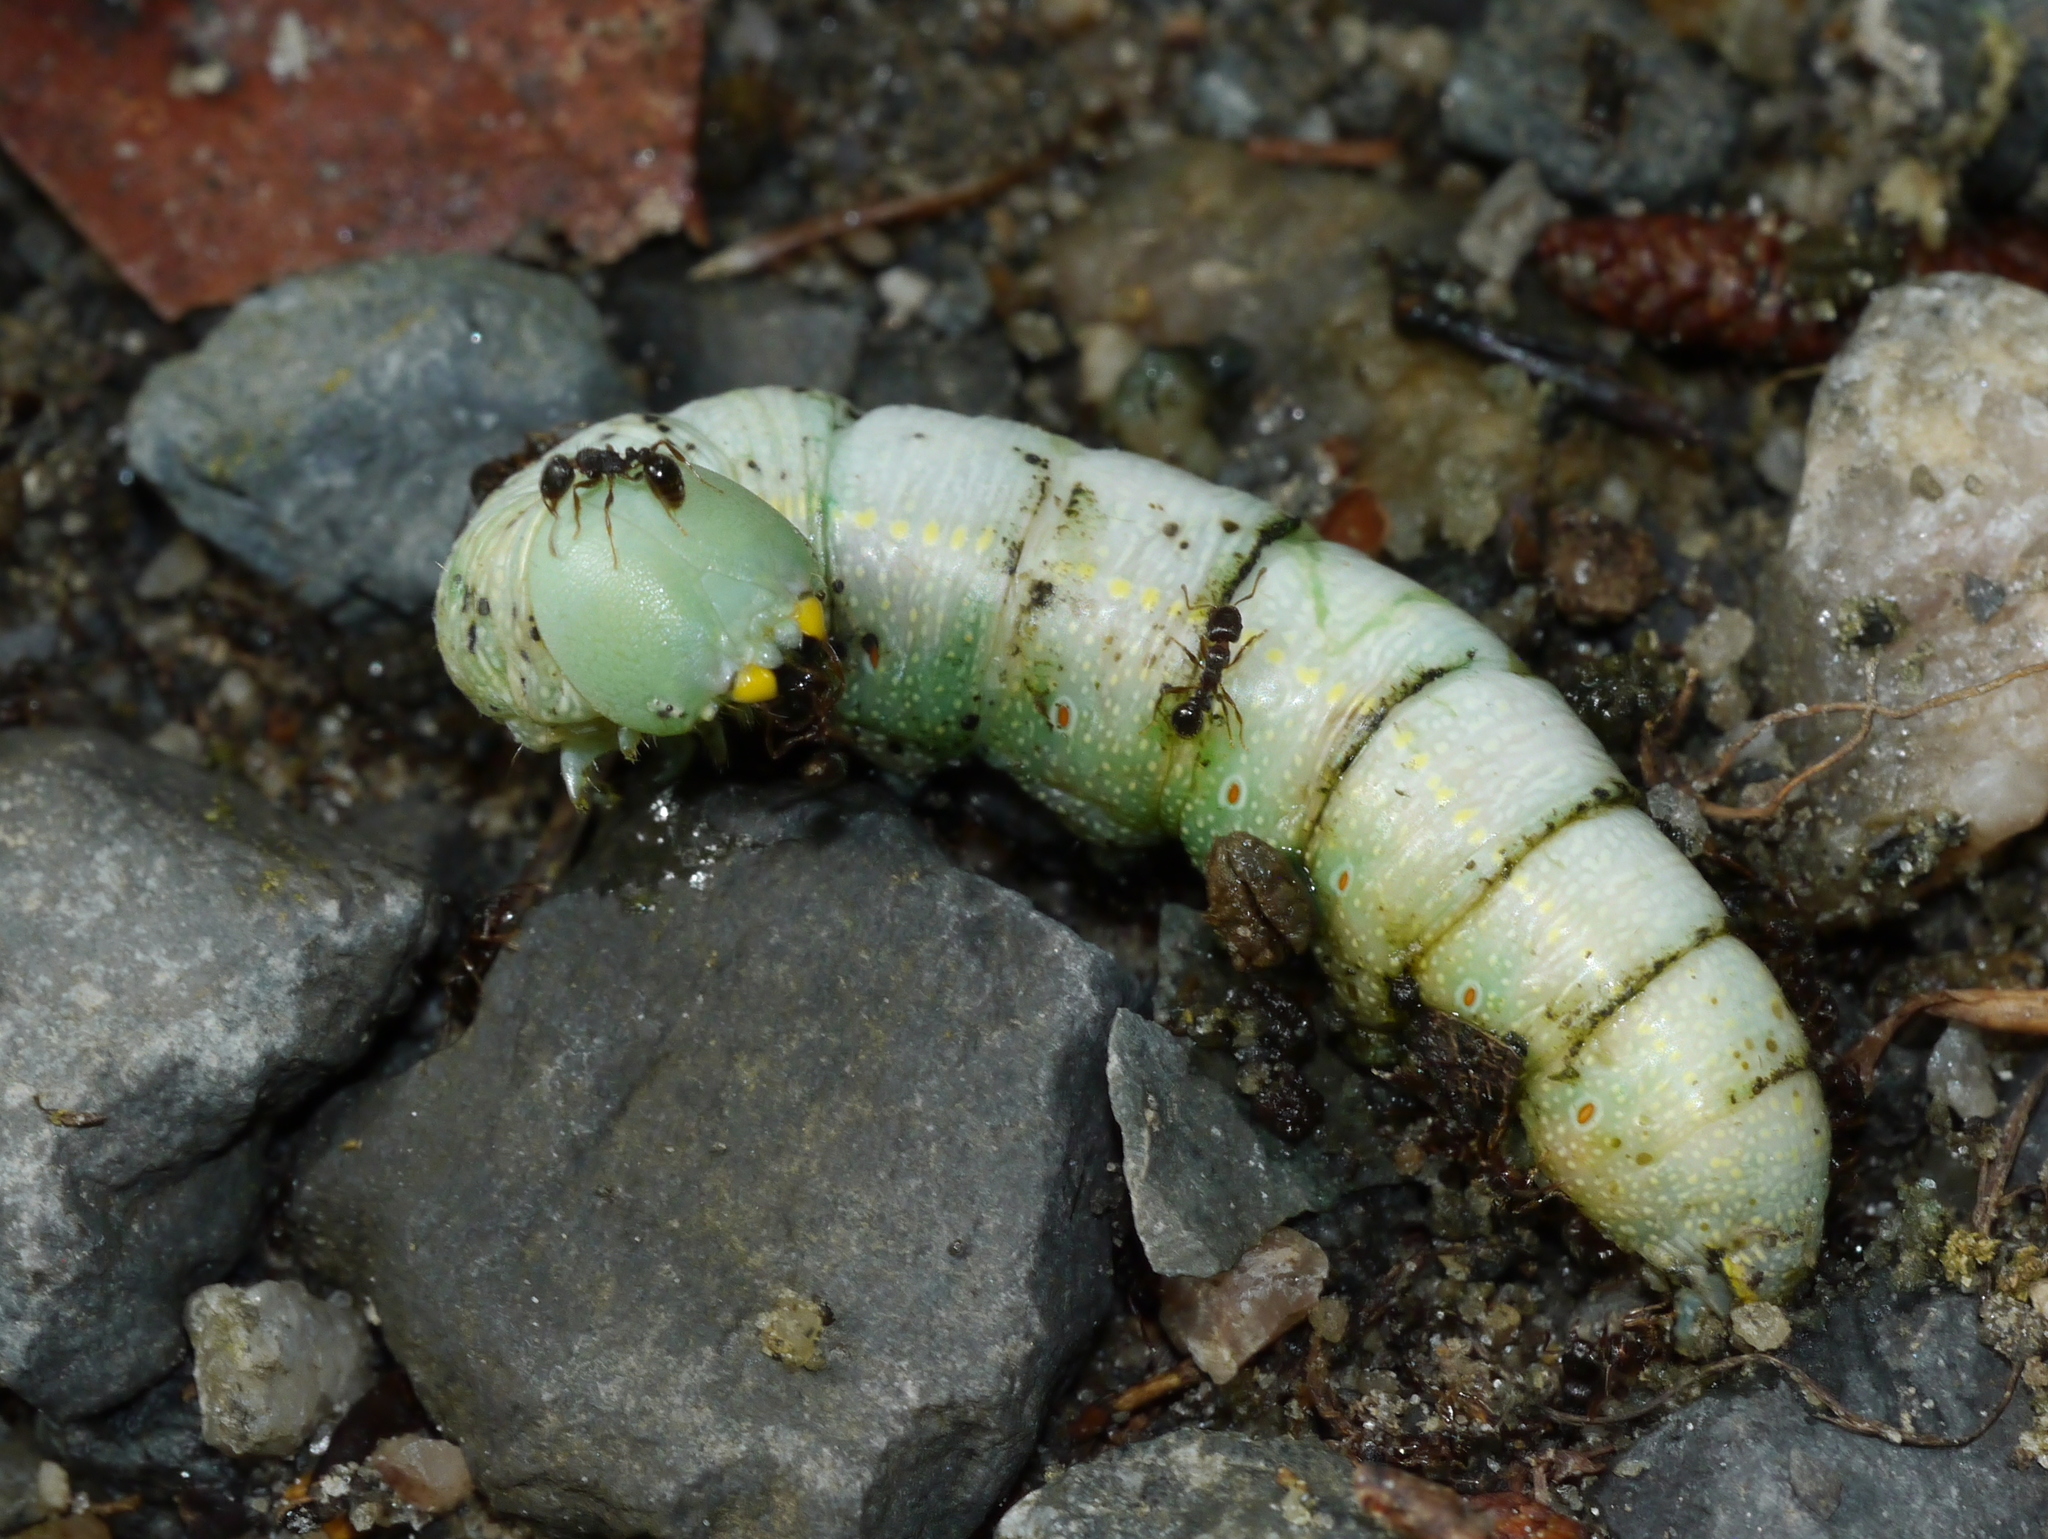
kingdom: Animalia
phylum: Arthropoda
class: Insecta
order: Lepidoptera
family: Notodontidae
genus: Nadata
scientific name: Nadata gibbosa
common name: White-dotted prominent
